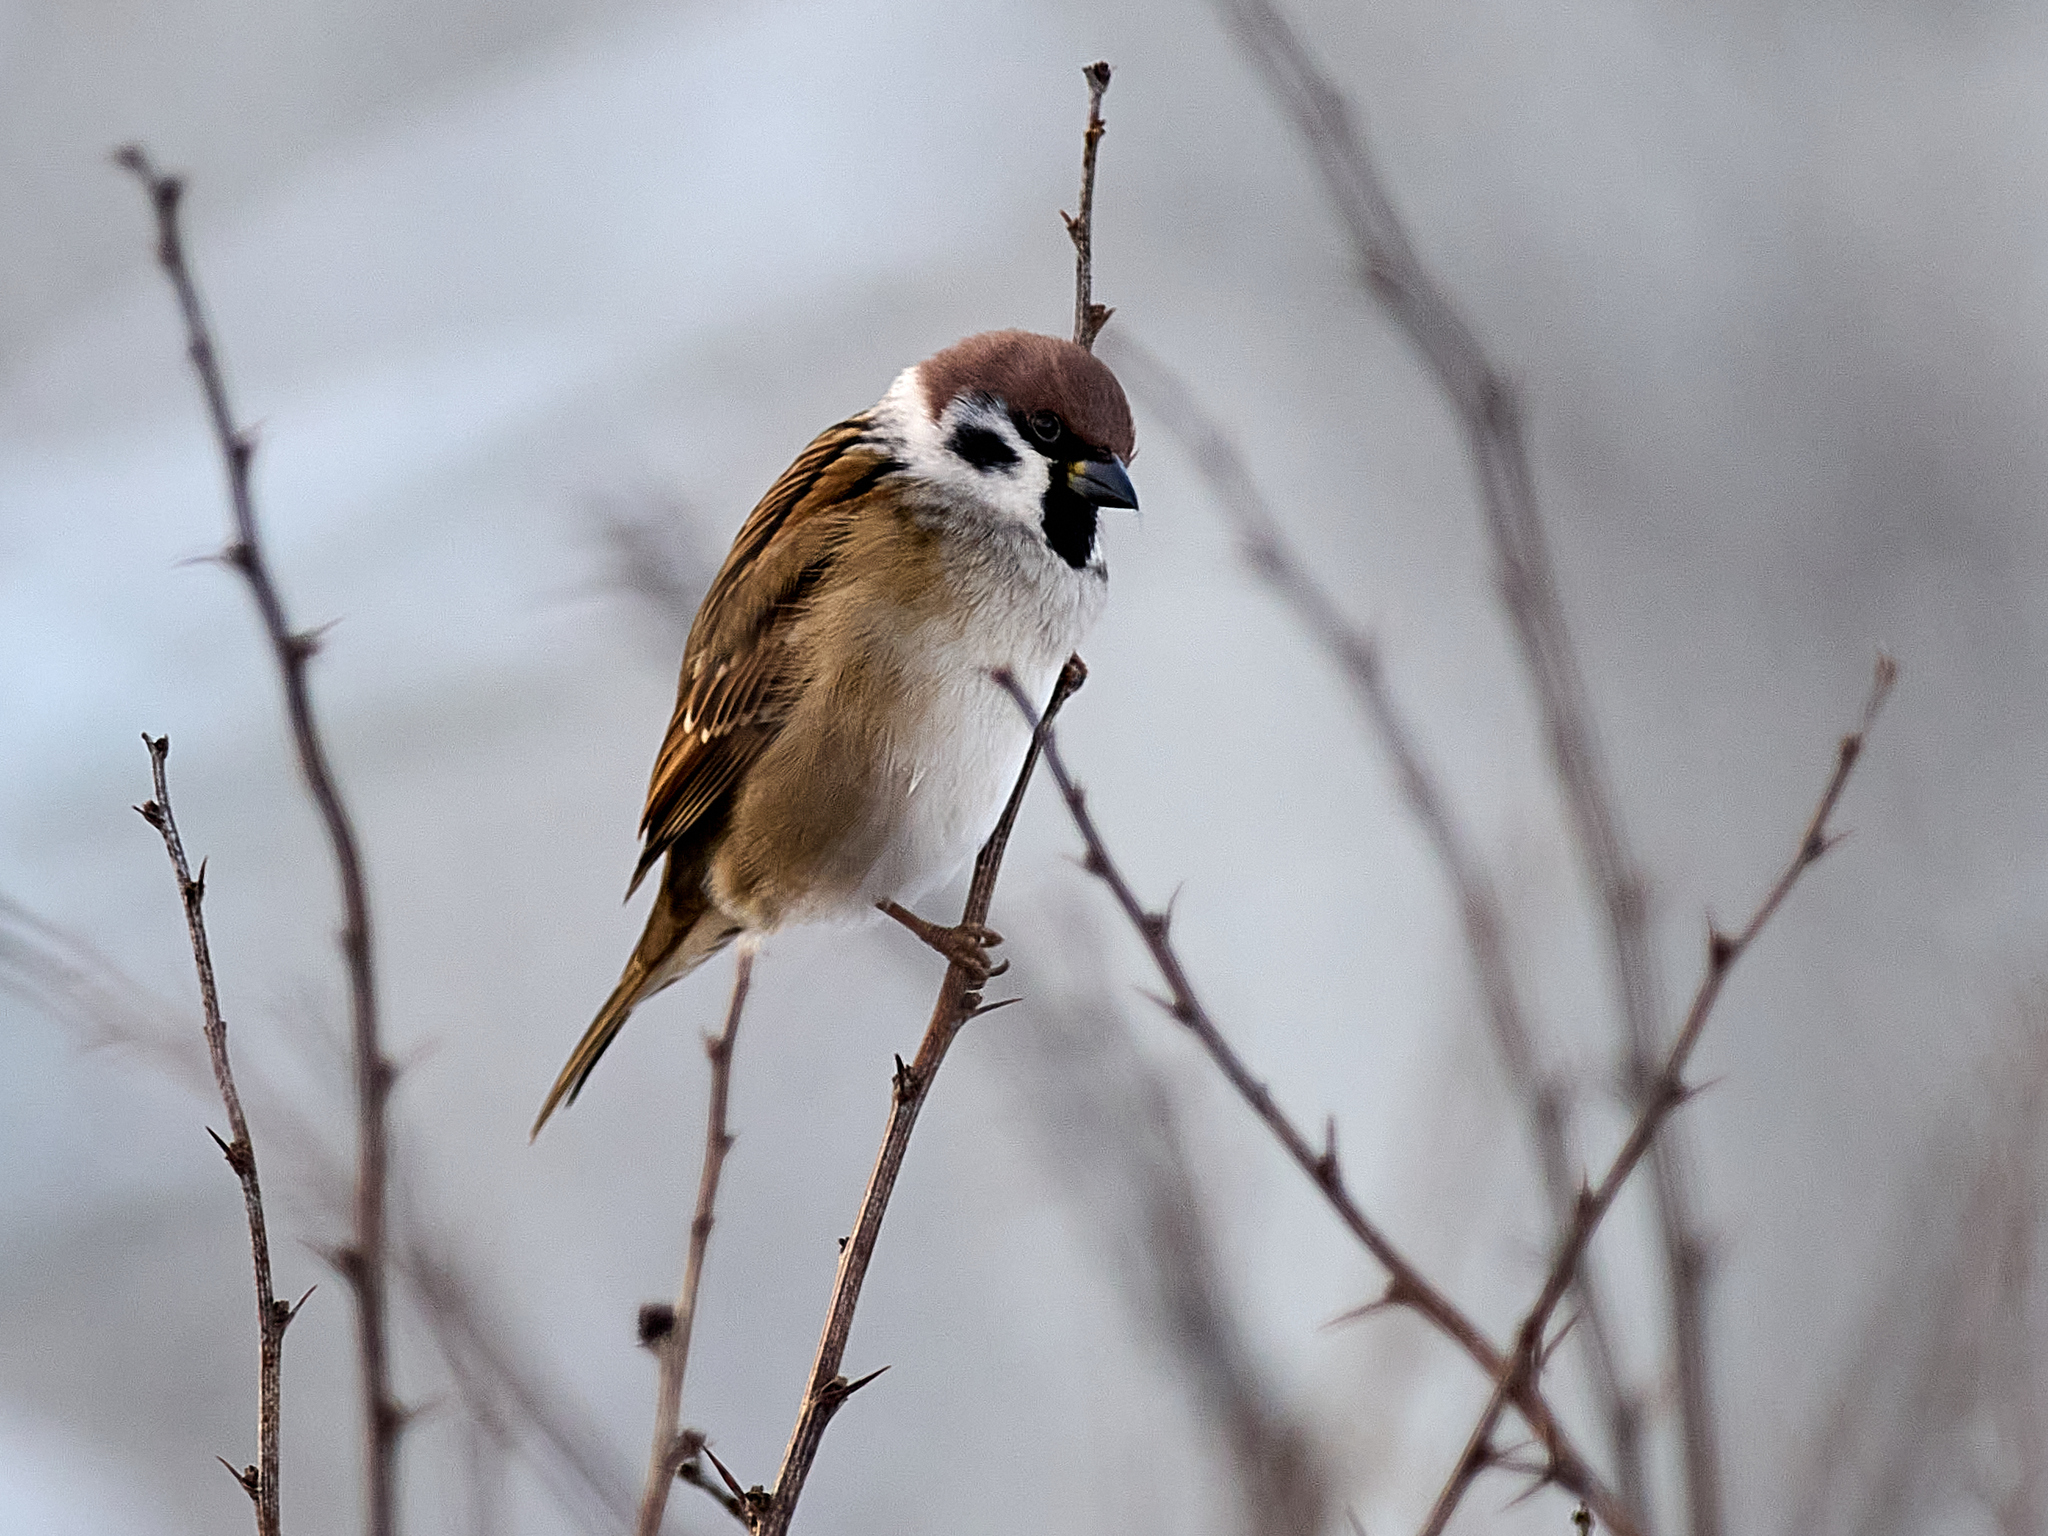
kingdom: Animalia
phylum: Chordata
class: Aves
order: Passeriformes
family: Passeridae
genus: Passer
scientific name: Passer montanus
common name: Eurasian tree sparrow
